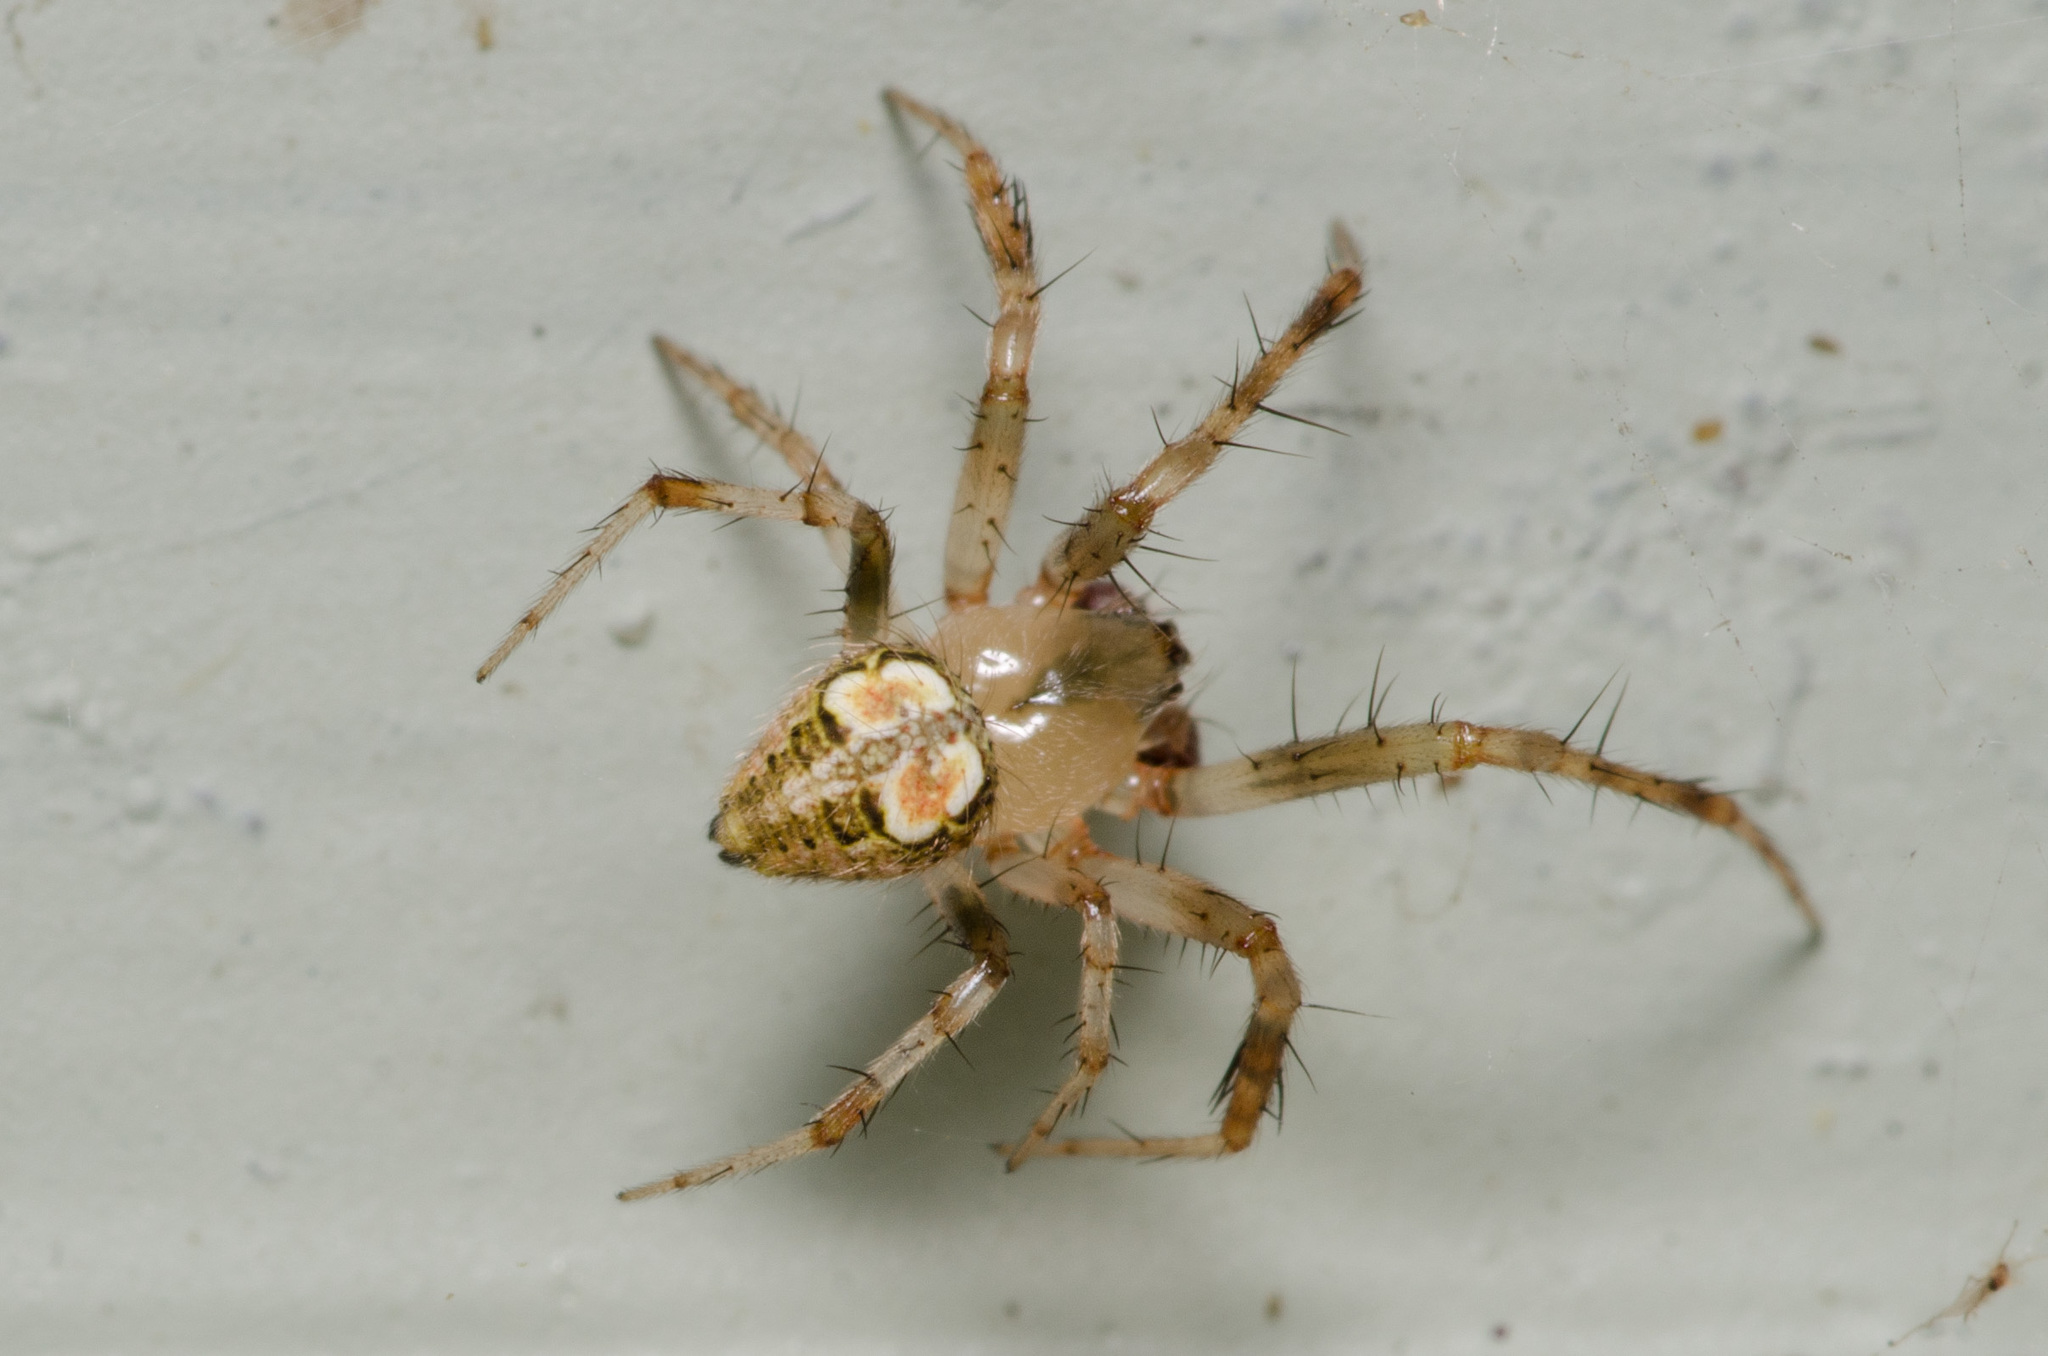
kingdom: Animalia
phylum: Arthropoda
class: Arachnida
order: Araneae
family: Araneidae
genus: Araneus
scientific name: Araneus pegnia
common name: Orb weavers
